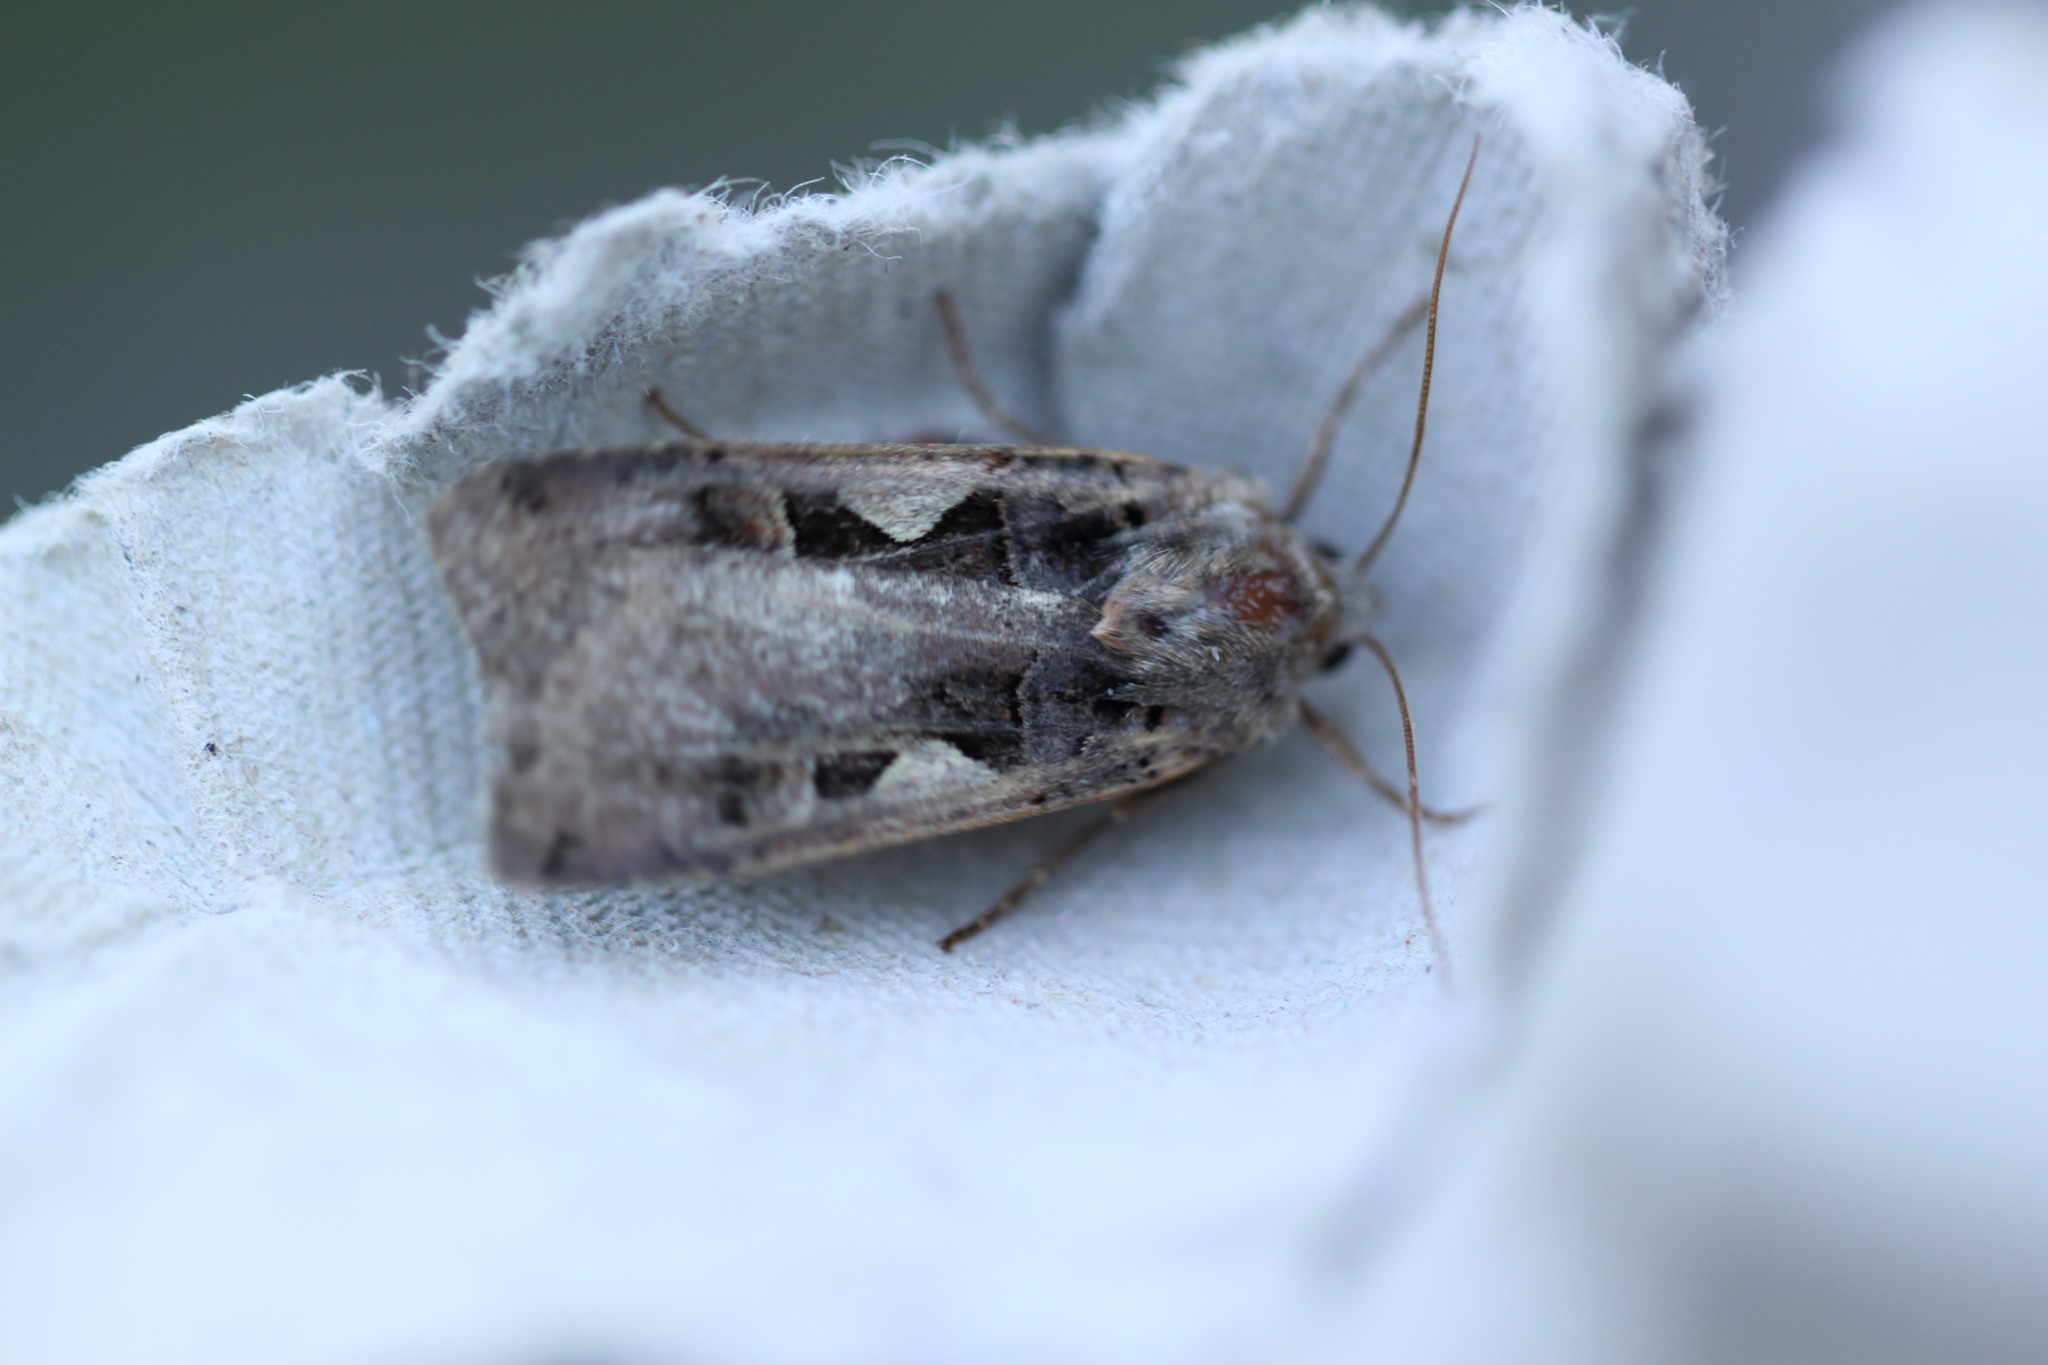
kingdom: Animalia
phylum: Arthropoda
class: Insecta
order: Lepidoptera
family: Noctuidae
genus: Xestia
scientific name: Xestia c-nigrum
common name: Setaceous hebrew character
